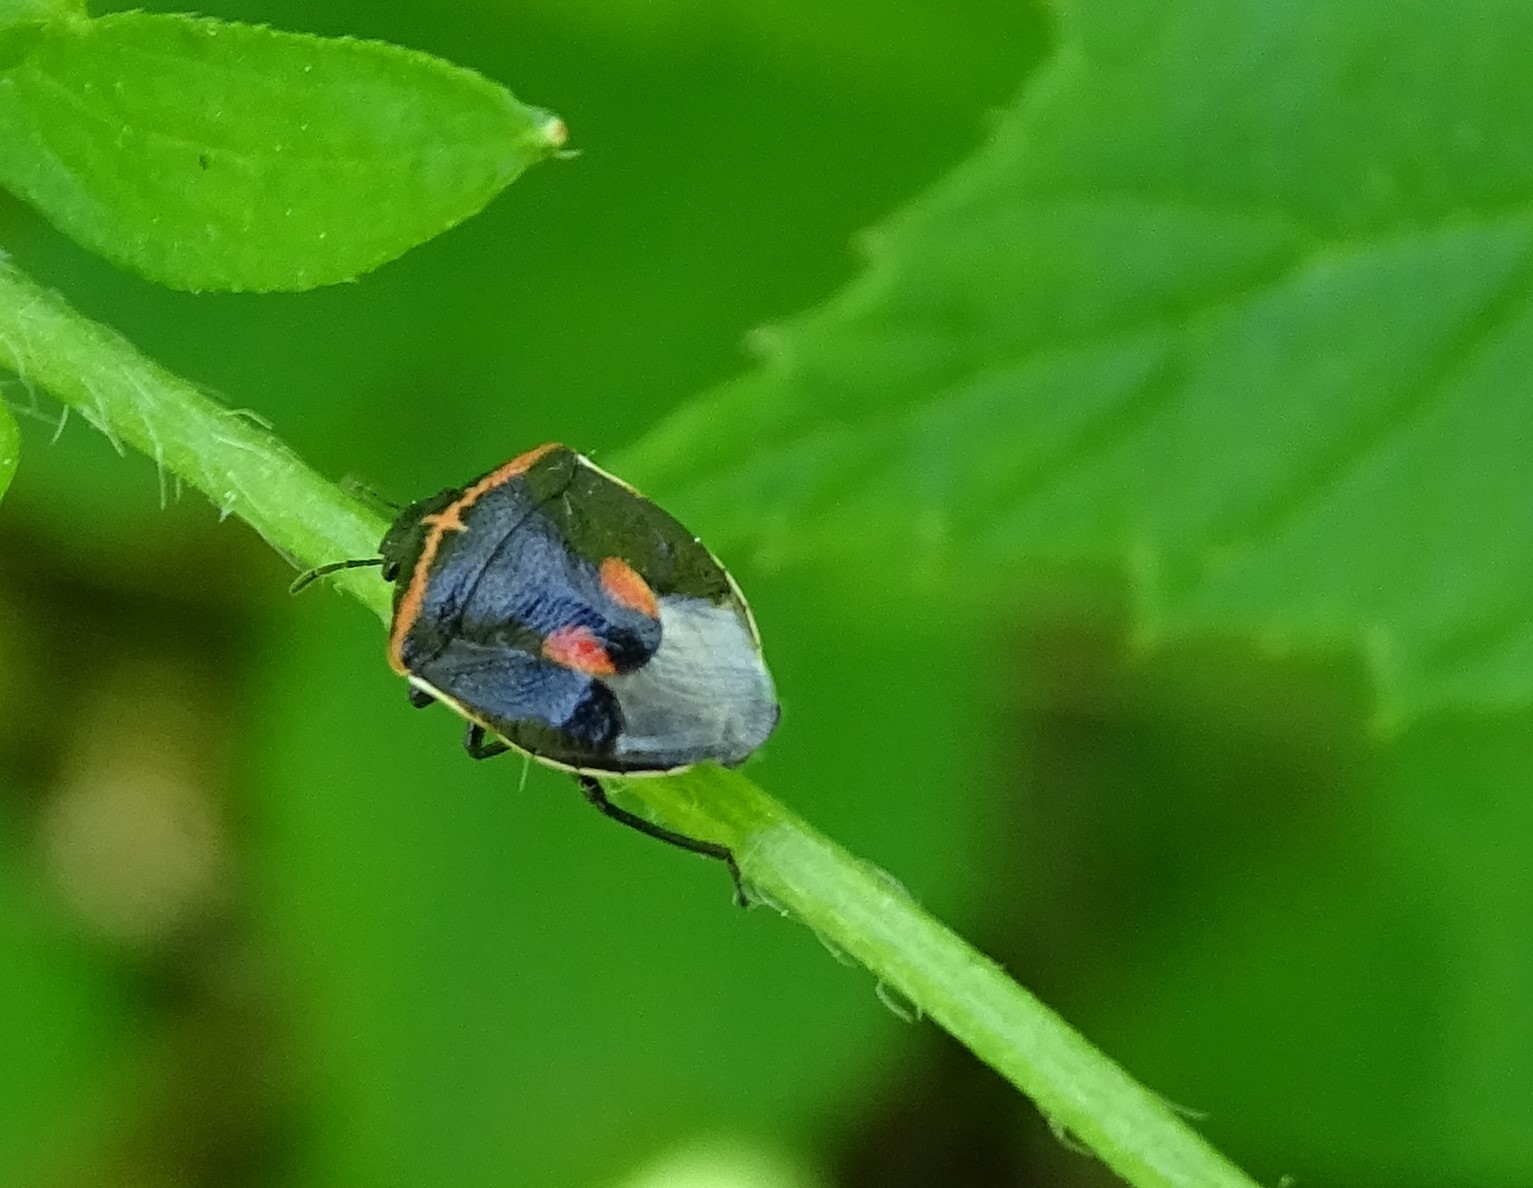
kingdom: Animalia
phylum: Arthropoda
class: Insecta
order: Hemiptera
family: Pentatomidae
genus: Cosmopepla
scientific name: Cosmopepla lintneriana
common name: Twice-stabbed stink bug
